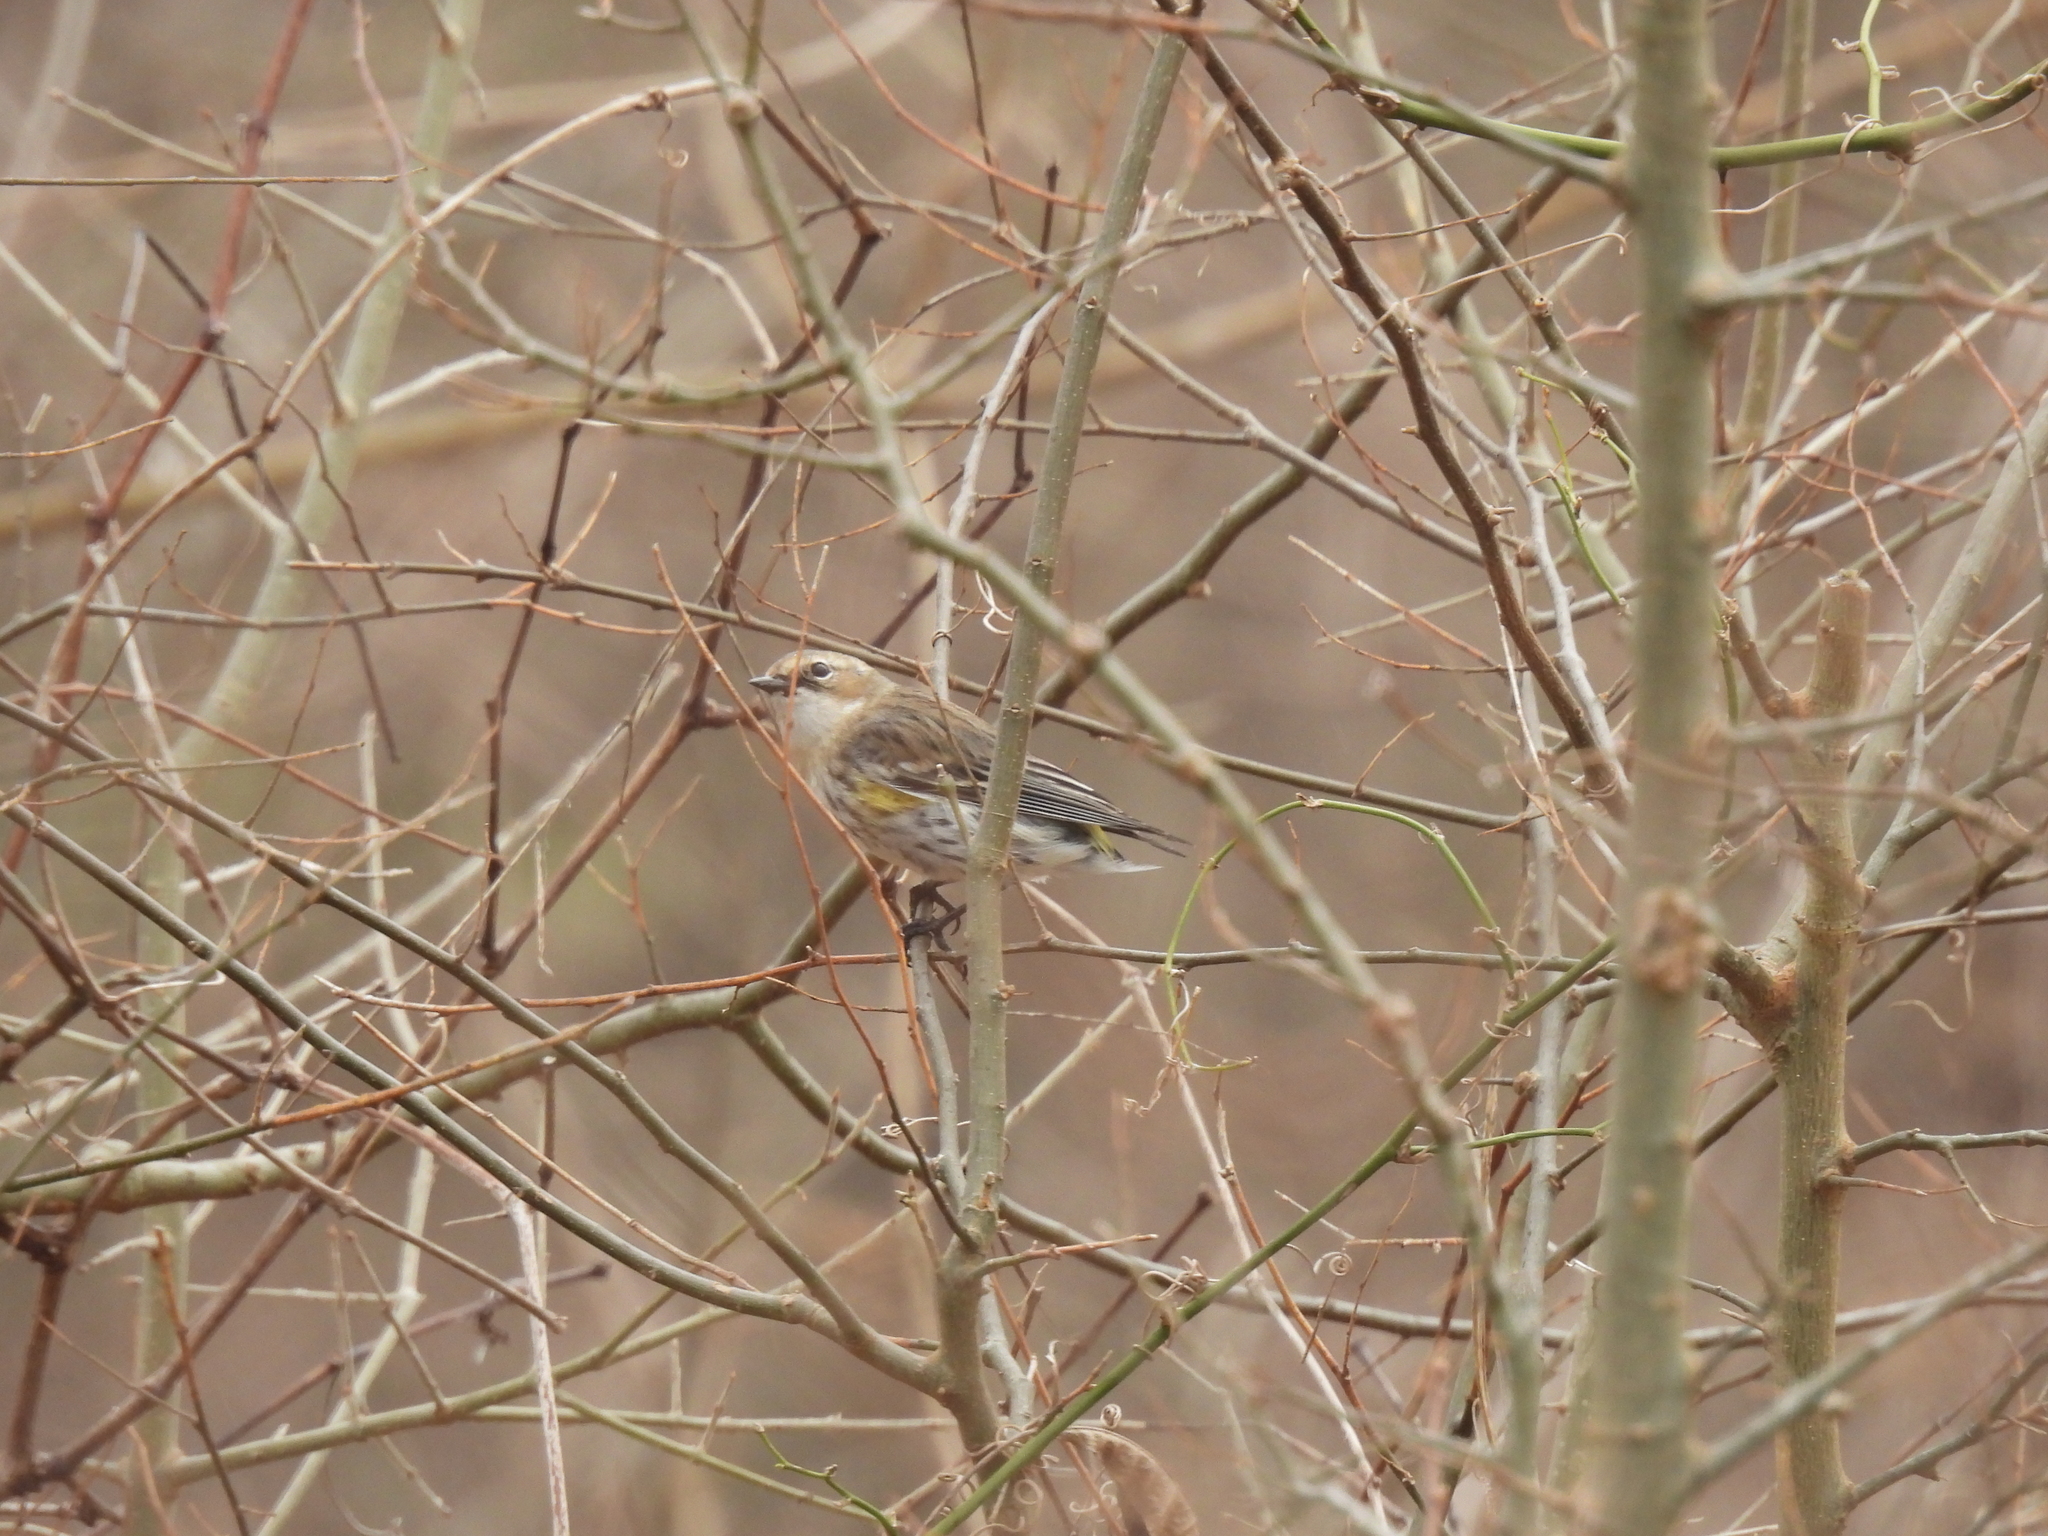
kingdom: Animalia
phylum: Chordata
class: Aves
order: Passeriformes
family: Parulidae
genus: Setophaga
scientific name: Setophaga coronata
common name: Myrtle warbler
